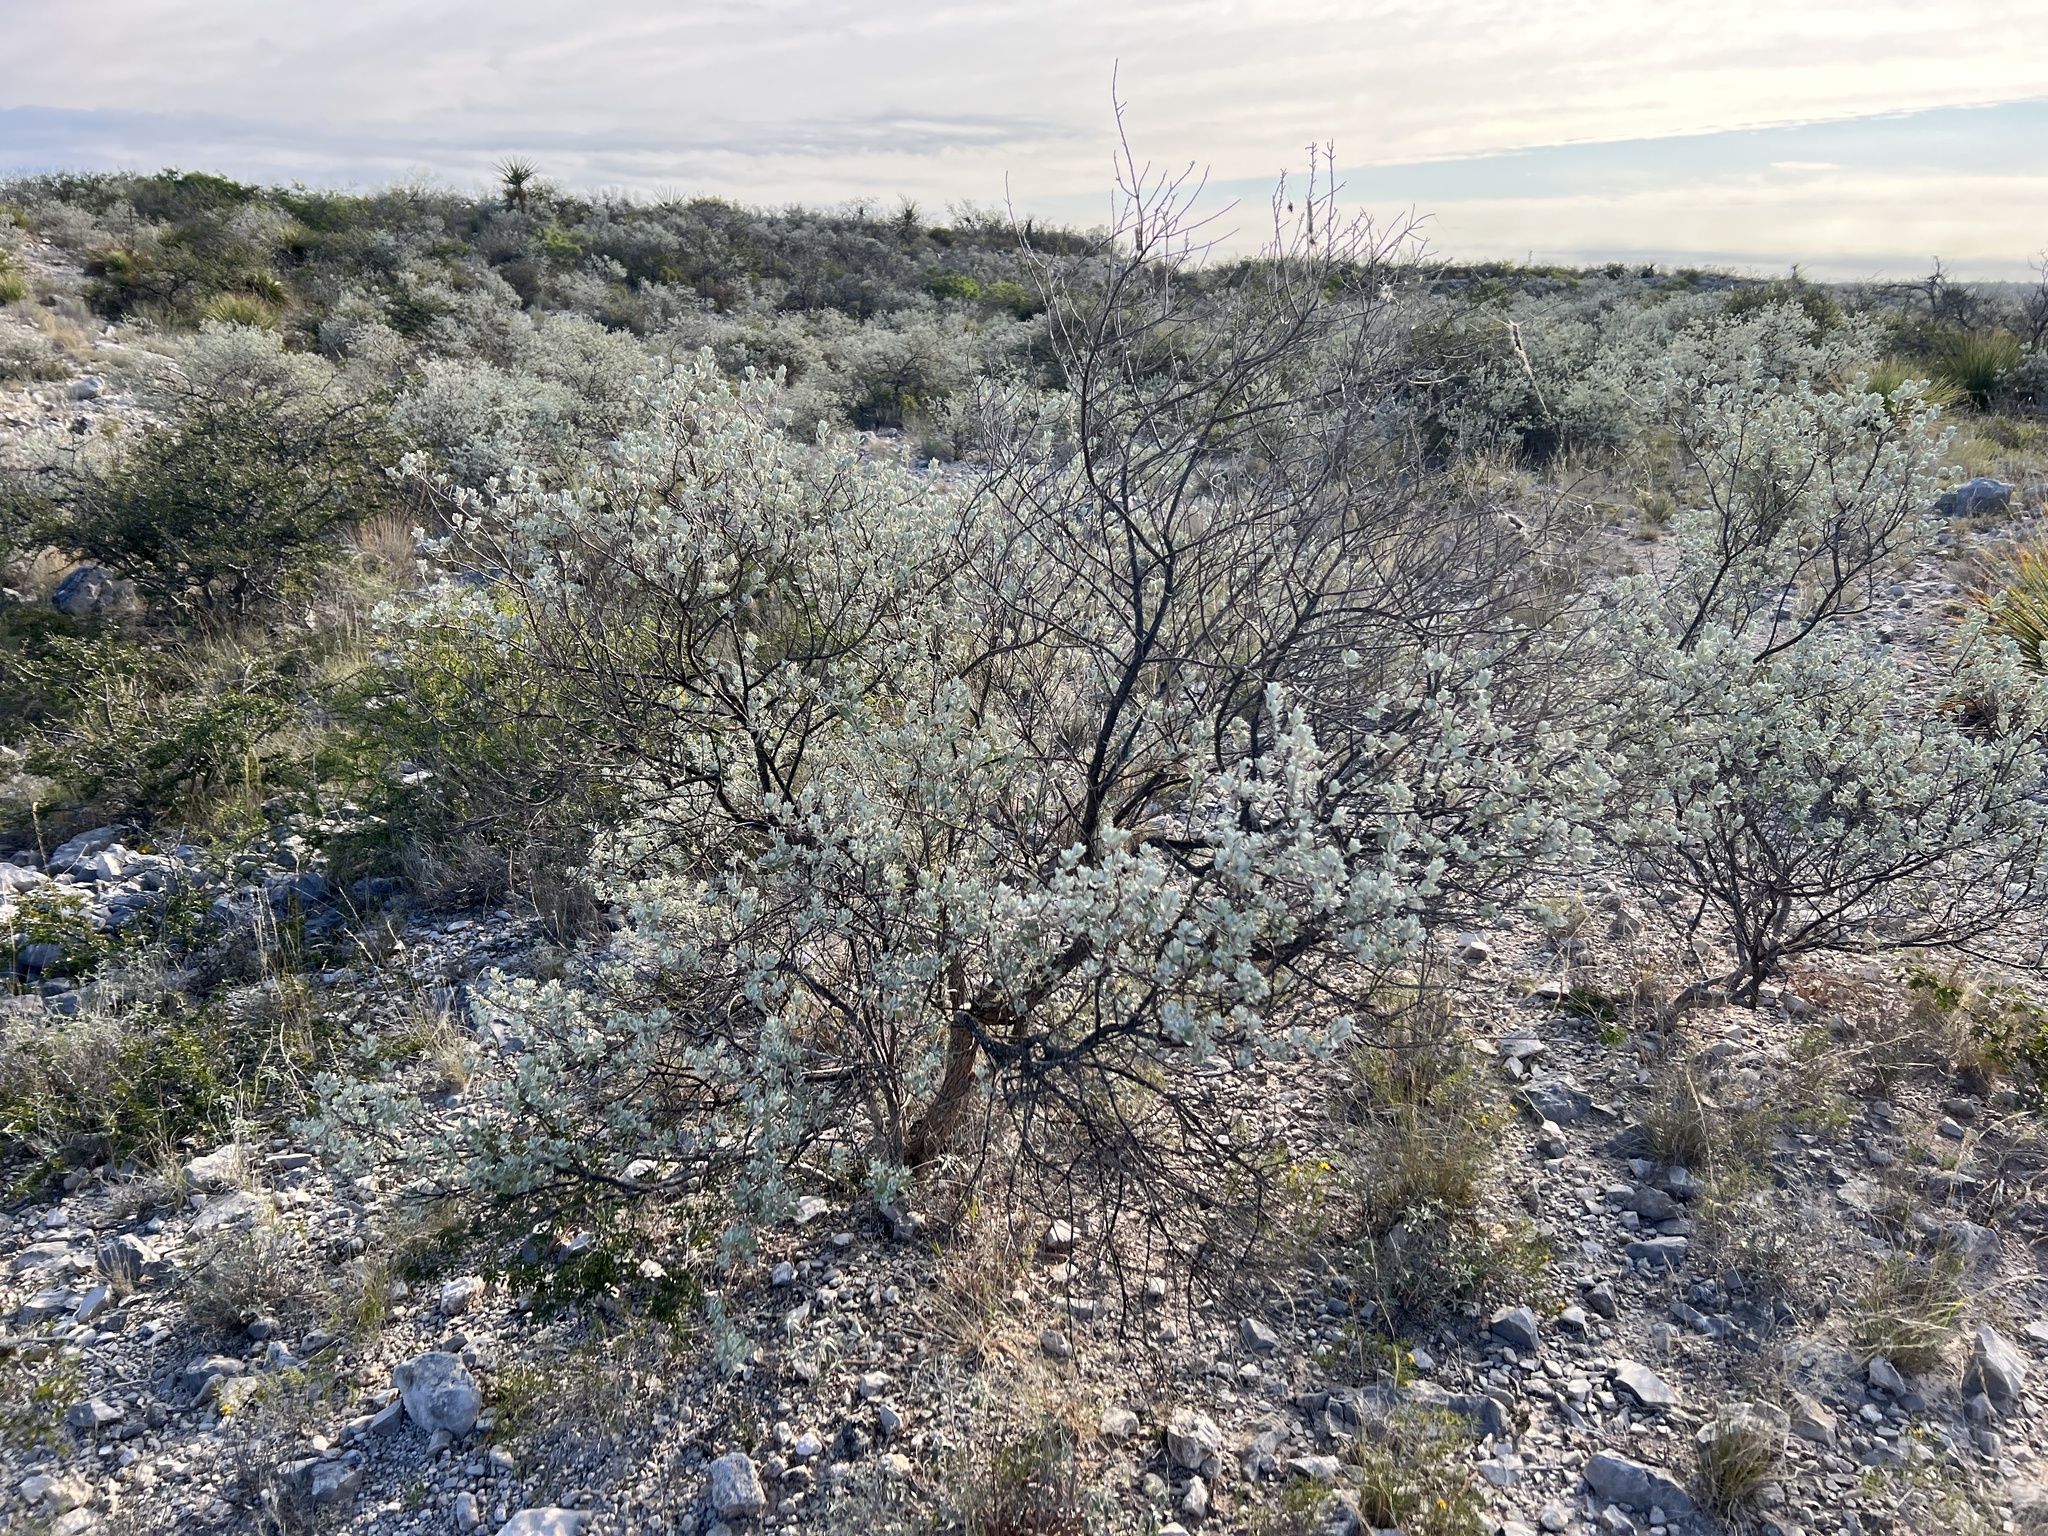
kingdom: Plantae
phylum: Tracheophyta
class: Magnoliopsida
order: Lamiales
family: Scrophulariaceae
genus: Leucophyllum
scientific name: Leucophyllum frutescens
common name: Texas silverleaf
